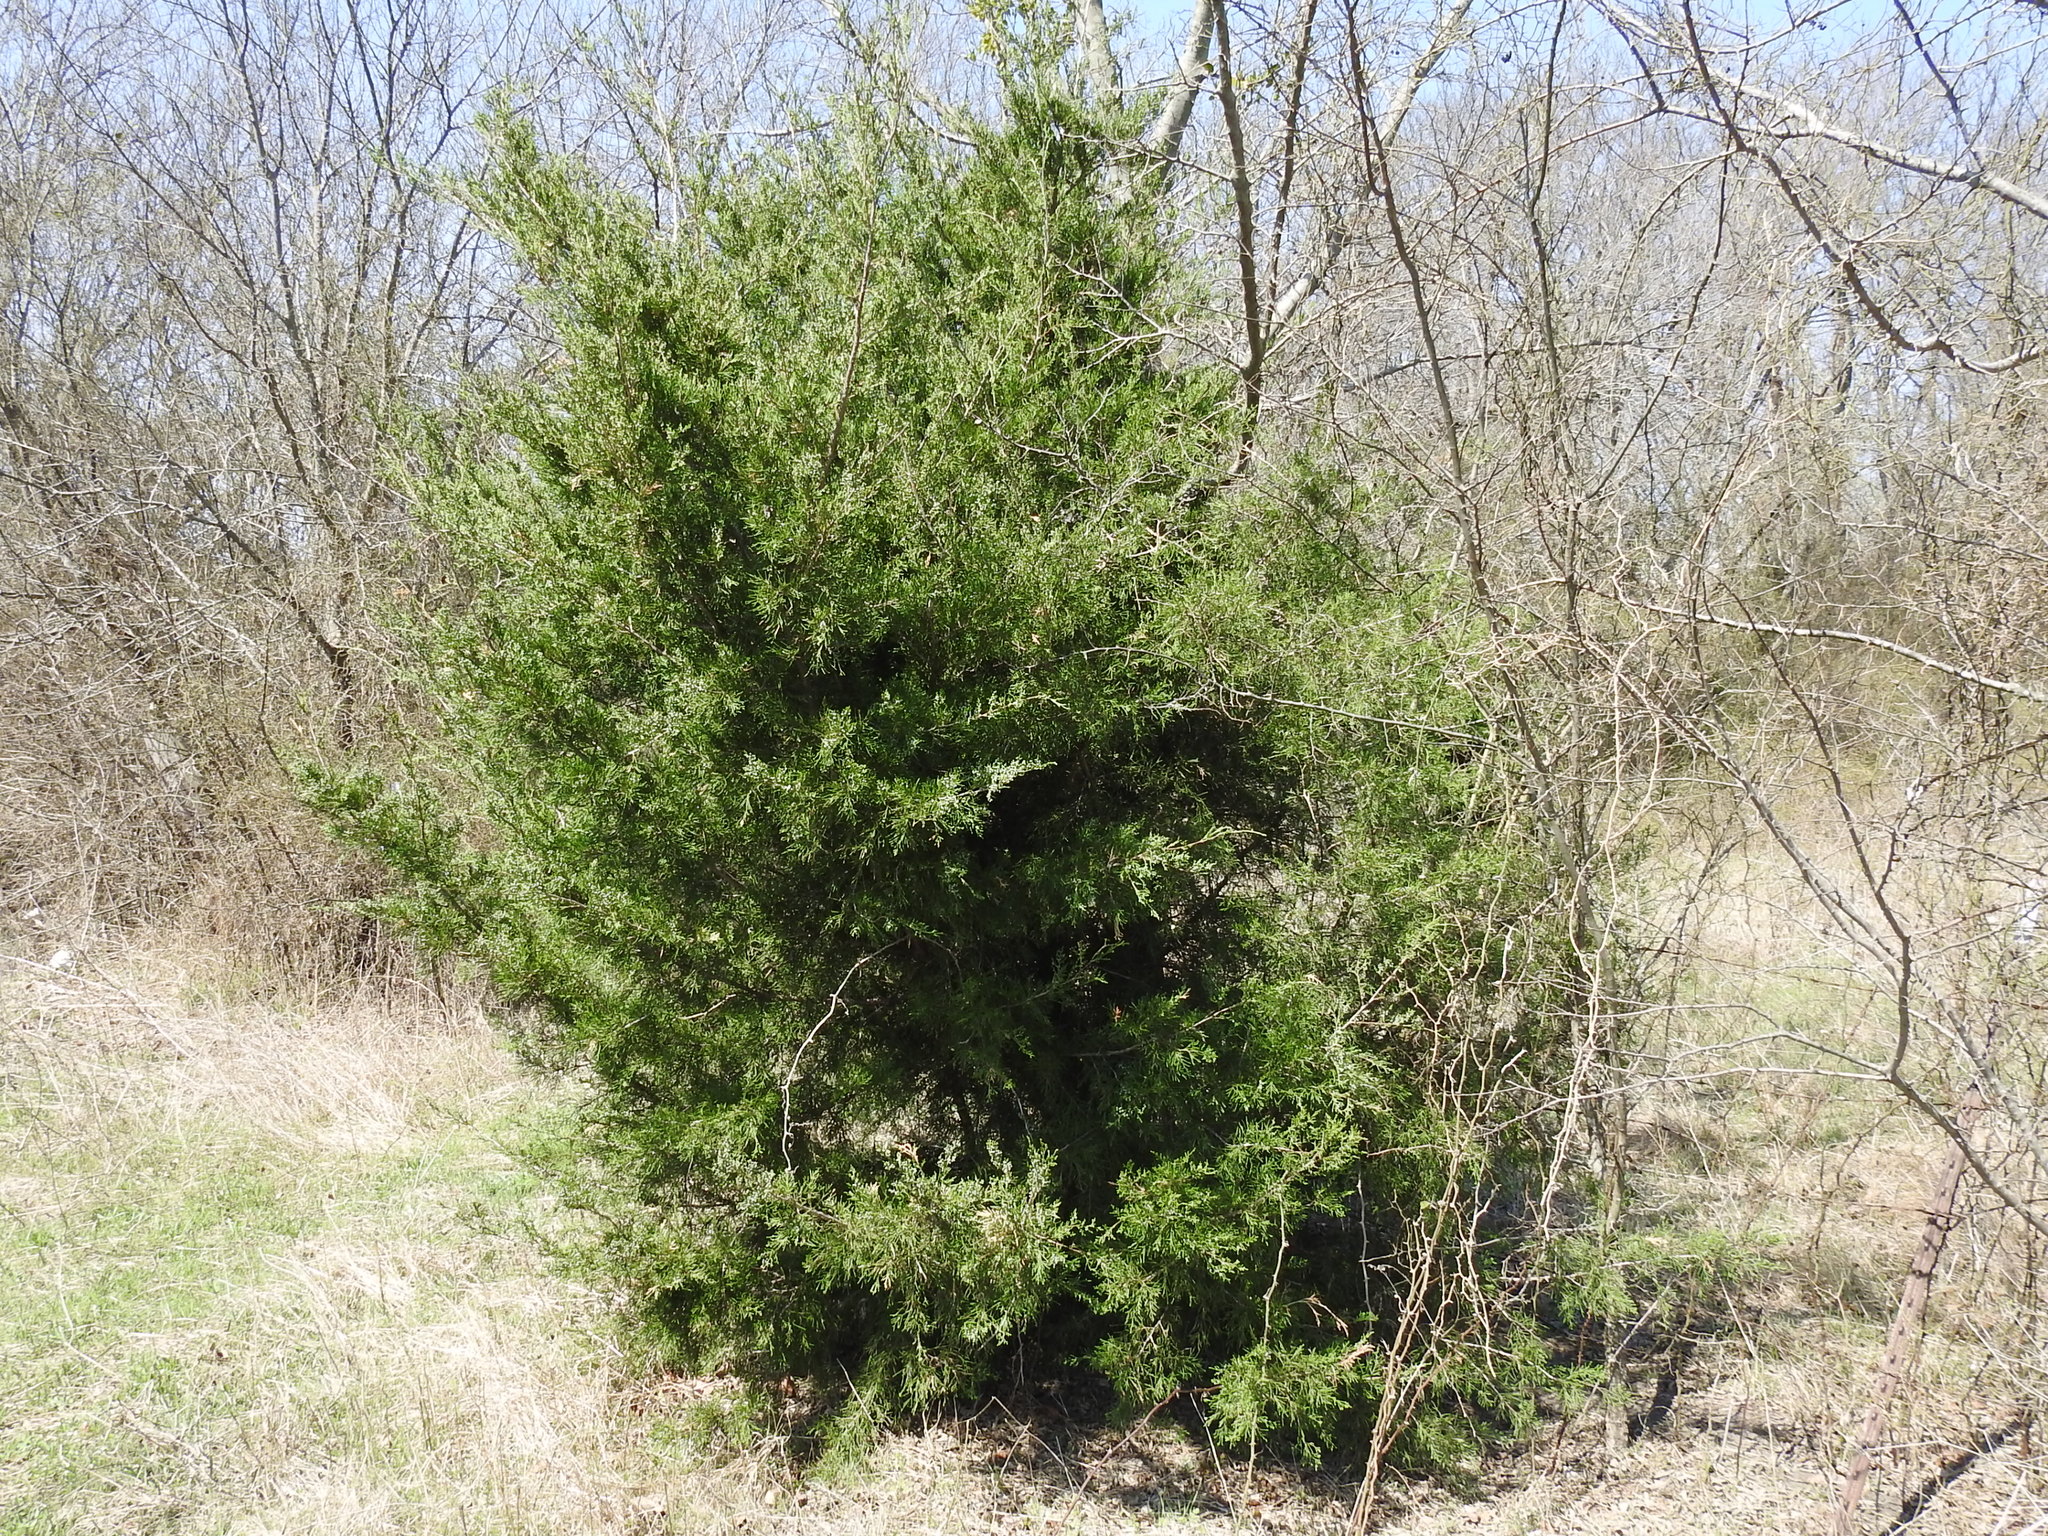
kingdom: Plantae
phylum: Tracheophyta
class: Pinopsida
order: Pinales
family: Cupressaceae
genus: Juniperus
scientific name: Juniperus virginiana
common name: Red juniper
